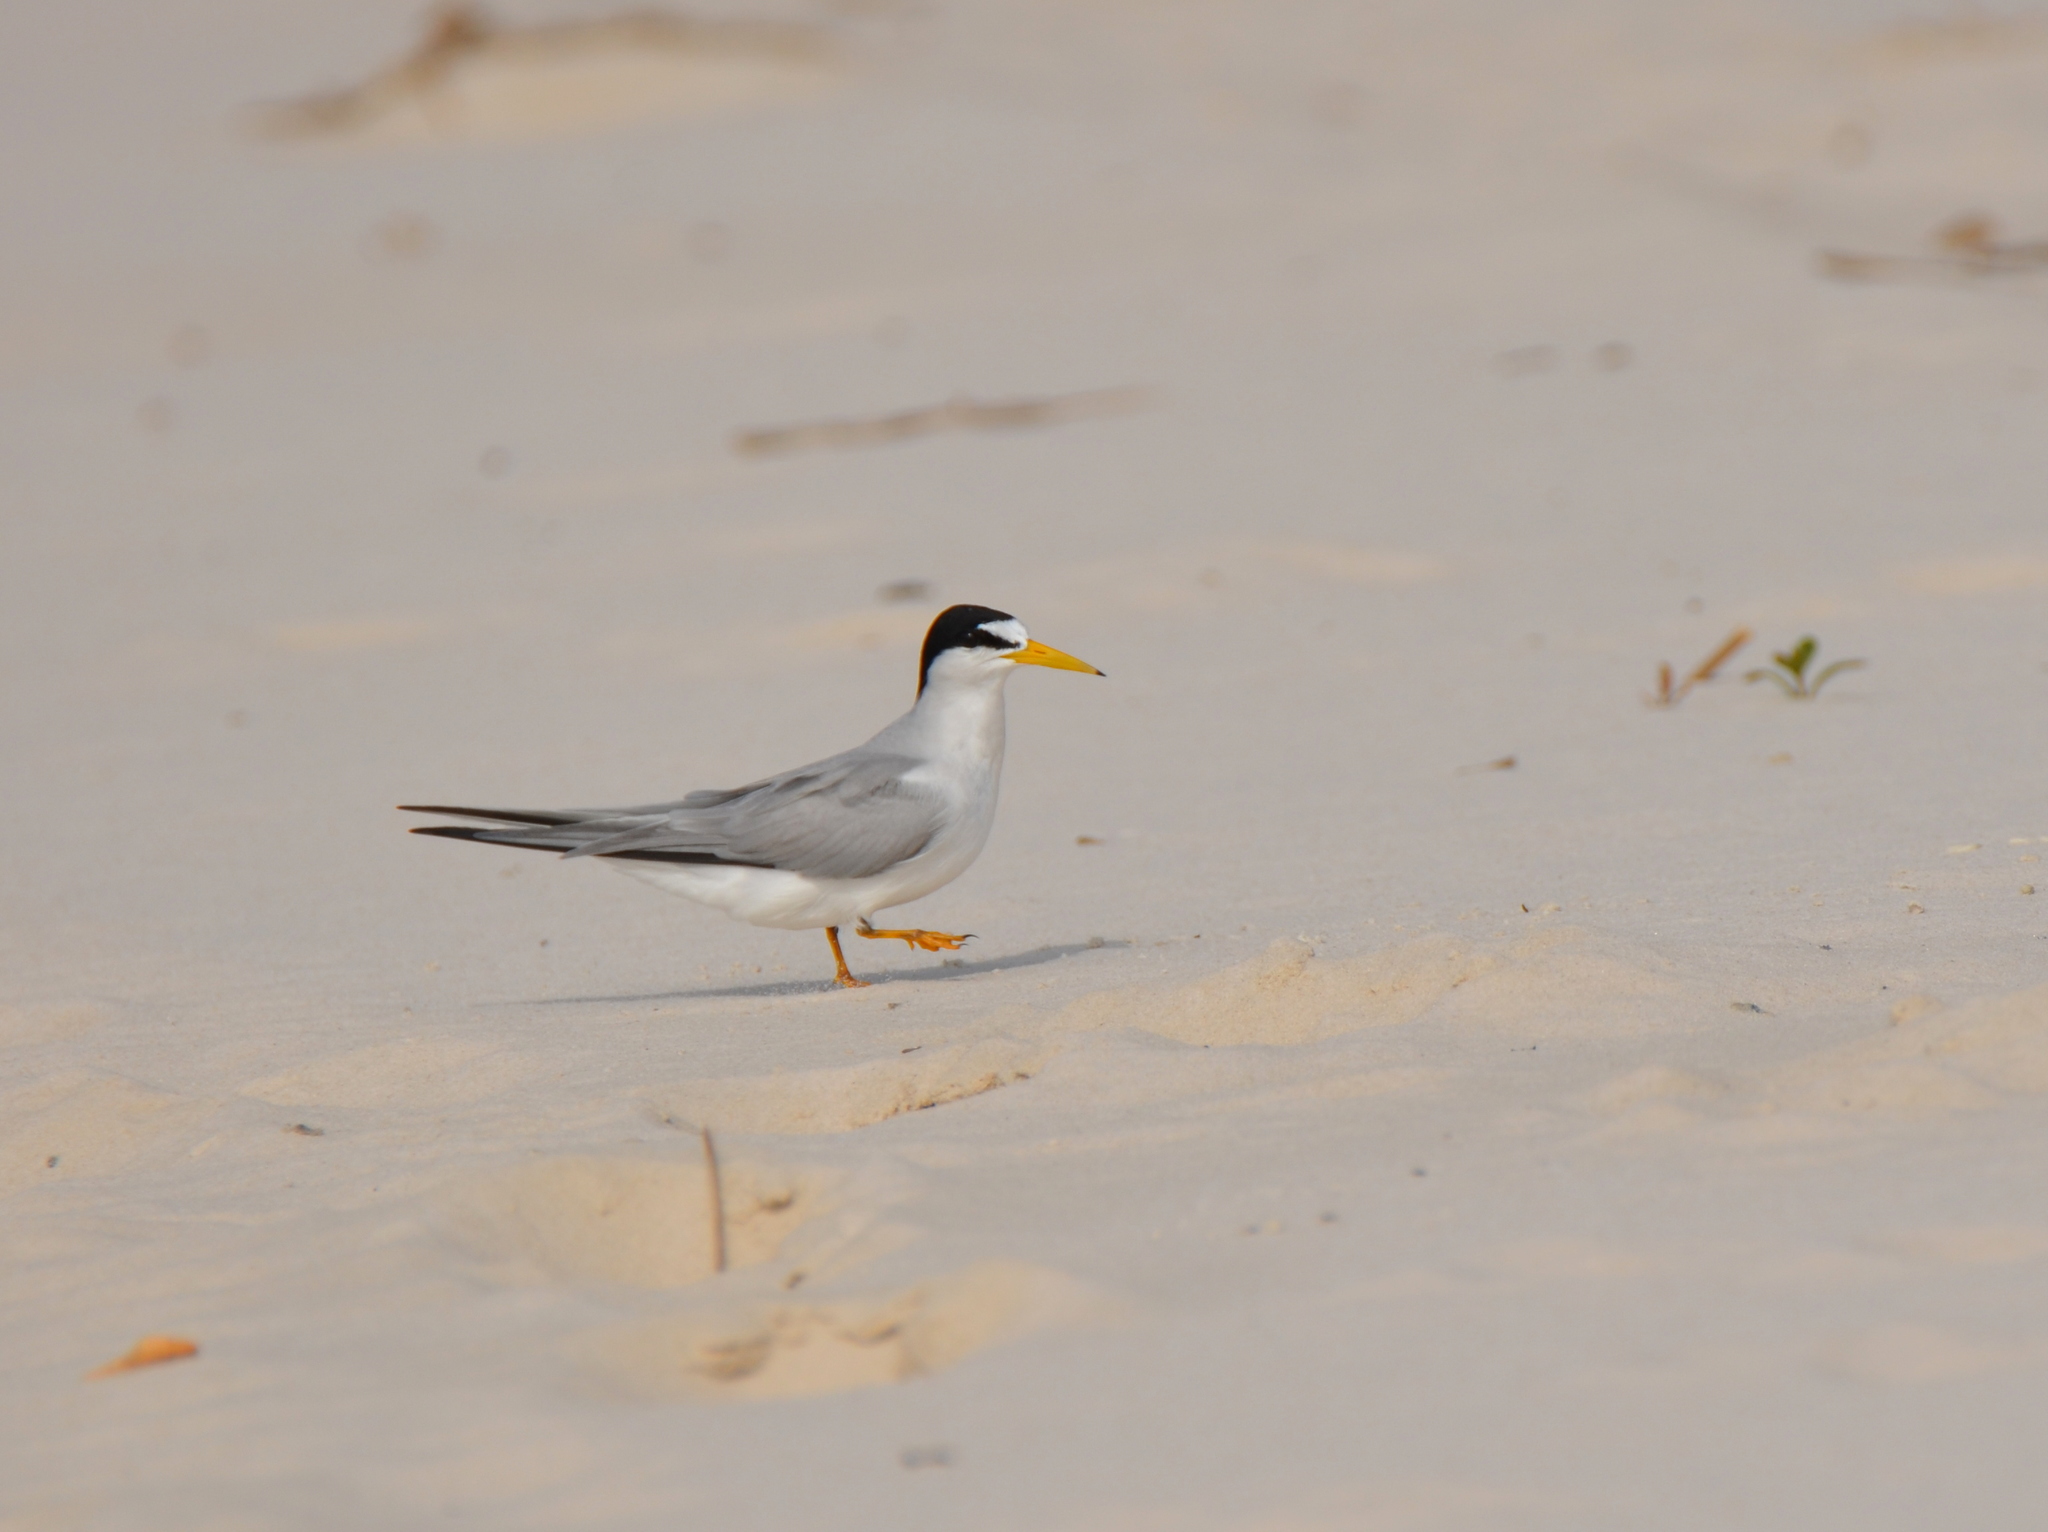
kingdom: Animalia
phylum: Chordata
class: Aves
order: Charadriiformes
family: Laridae
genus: Sternula
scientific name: Sternula antillarum
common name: Least tern
